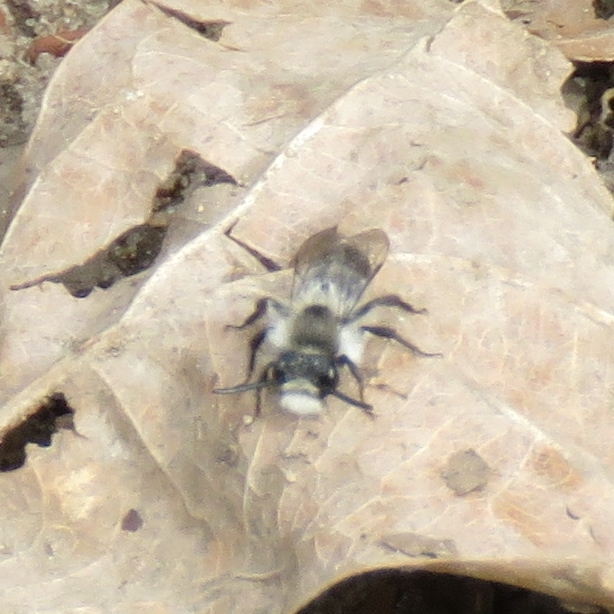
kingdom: Animalia
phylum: Arthropoda
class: Insecta
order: Hymenoptera
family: Andrenidae
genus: Andrena
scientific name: Andrena cineraria
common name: Ashy mining bee
